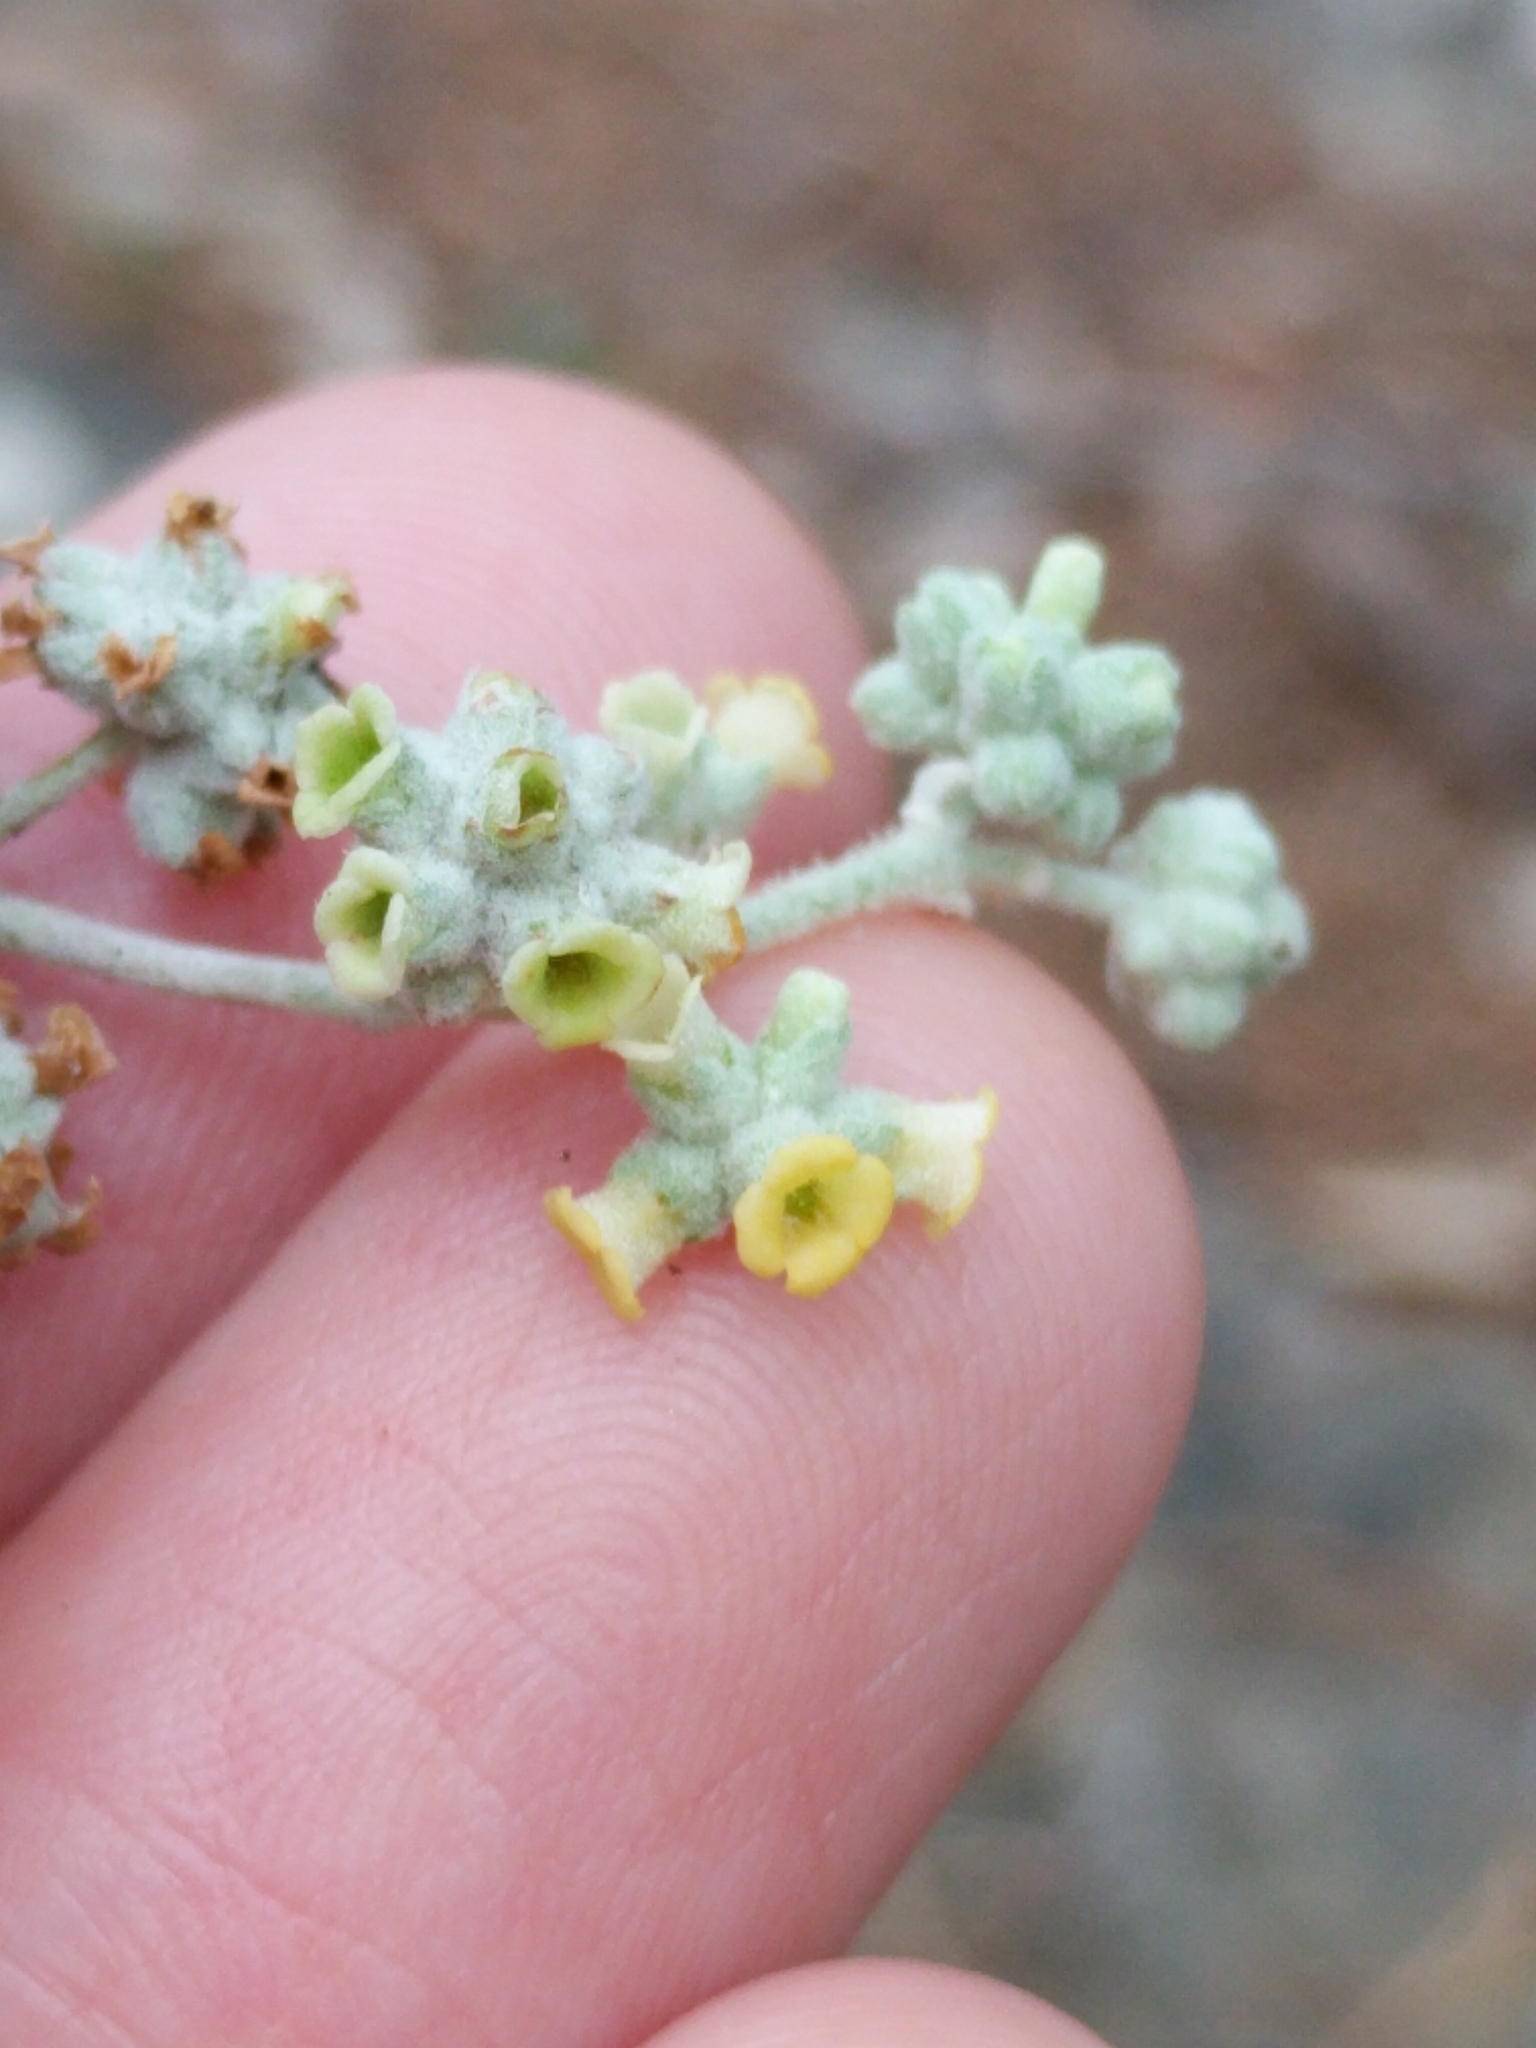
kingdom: Plantae
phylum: Tracheophyta
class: Magnoliopsida
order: Lamiales
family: Scrophulariaceae
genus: Buddleja
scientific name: Buddleja racemosa
